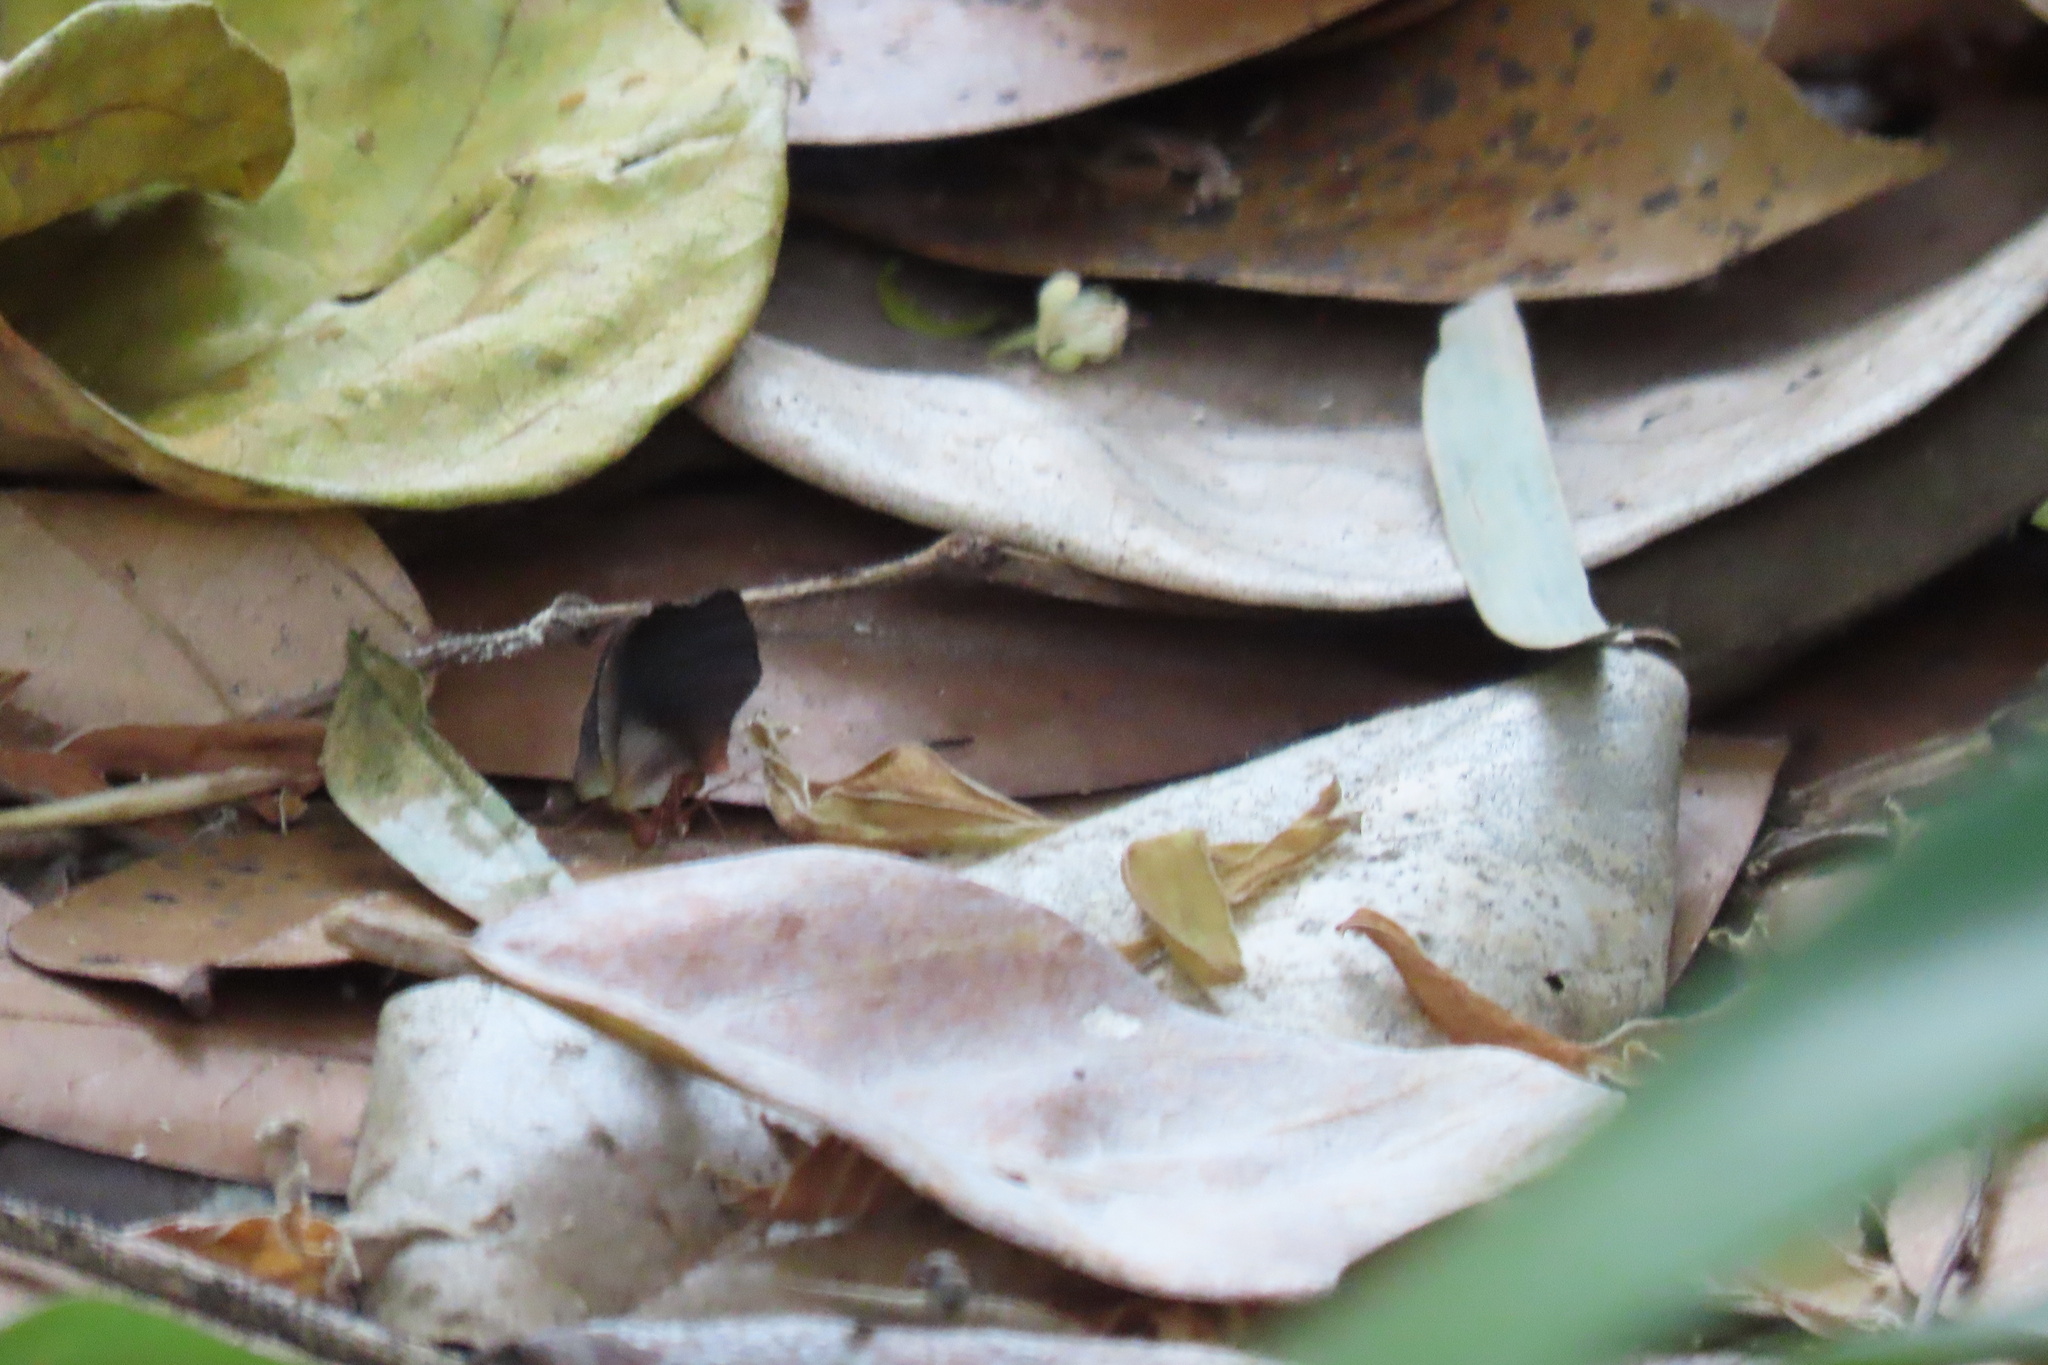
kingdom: Animalia
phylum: Arthropoda
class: Insecta
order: Hymenoptera
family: Formicidae
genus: Atta
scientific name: Atta cephalotes
